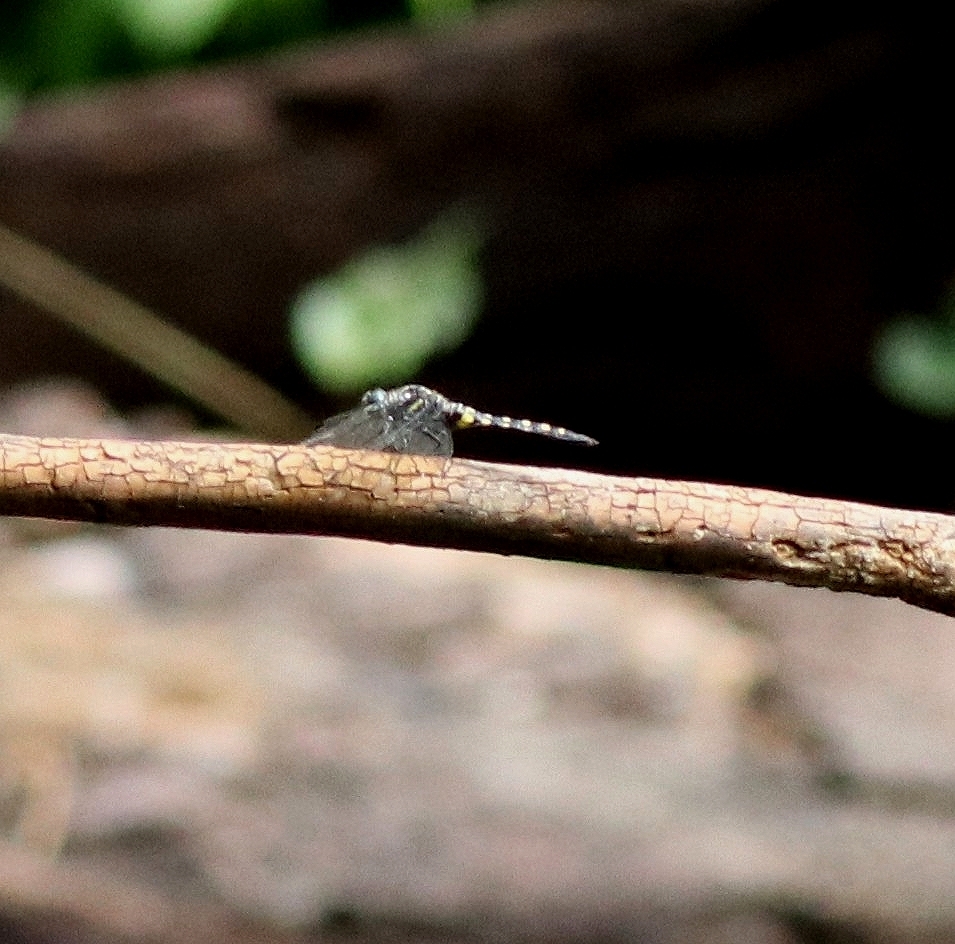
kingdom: Animalia
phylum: Arthropoda
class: Insecta
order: Odonata
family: Libellulidae
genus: Onychothemis
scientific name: Onychothemis testacea
